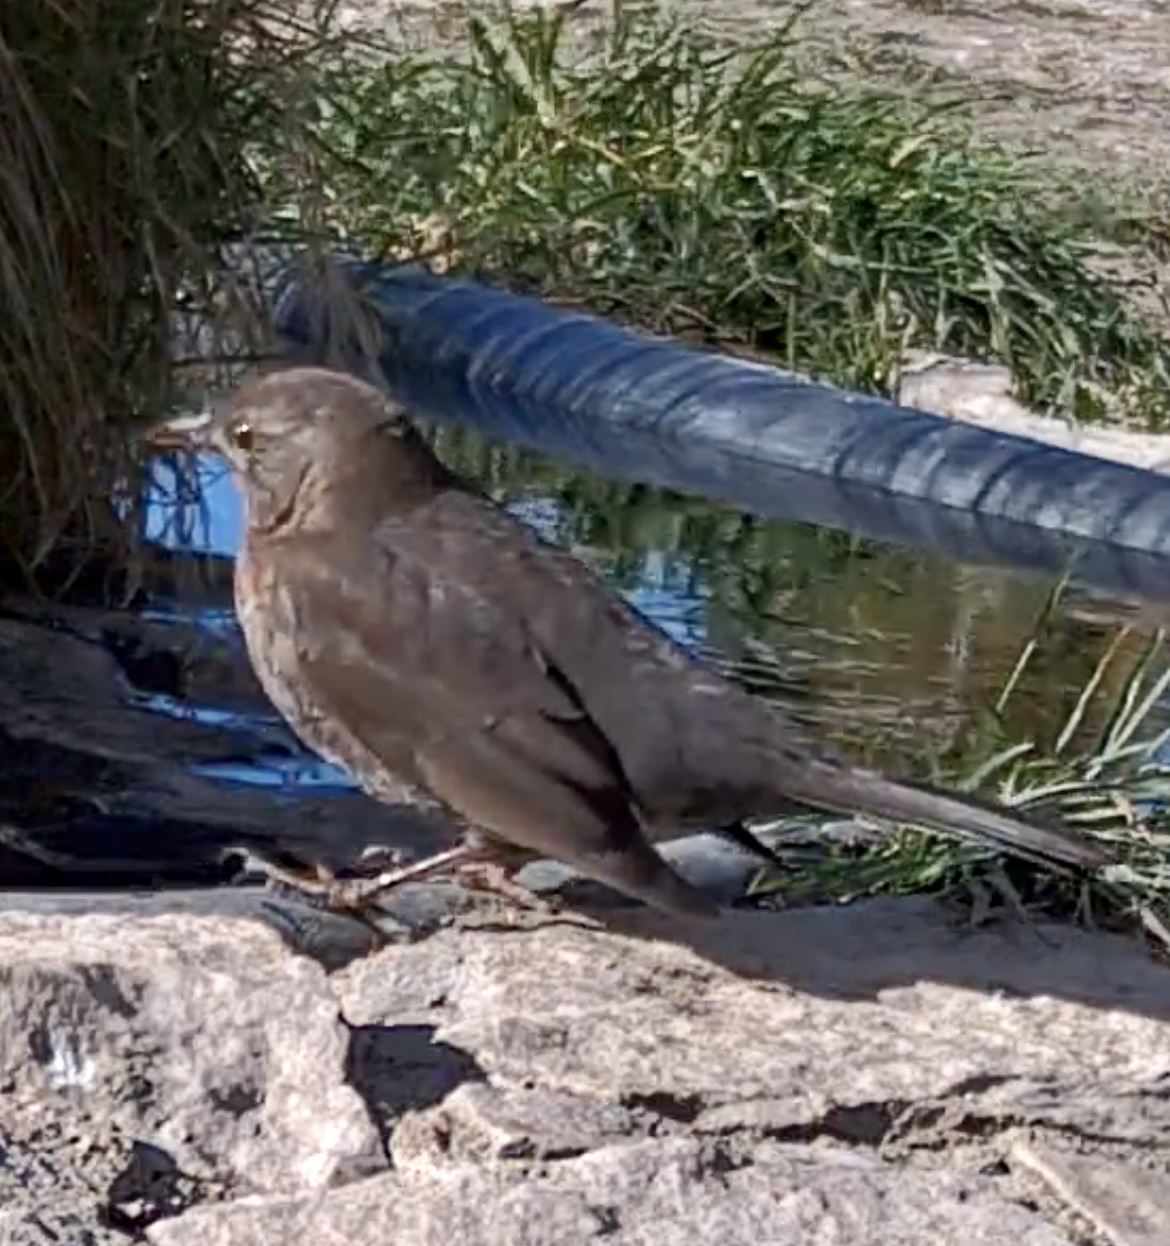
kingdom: Animalia
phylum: Chordata
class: Aves
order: Passeriformes
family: Turdidae
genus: Turdus
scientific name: Turdus merula
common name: Common blackbird
